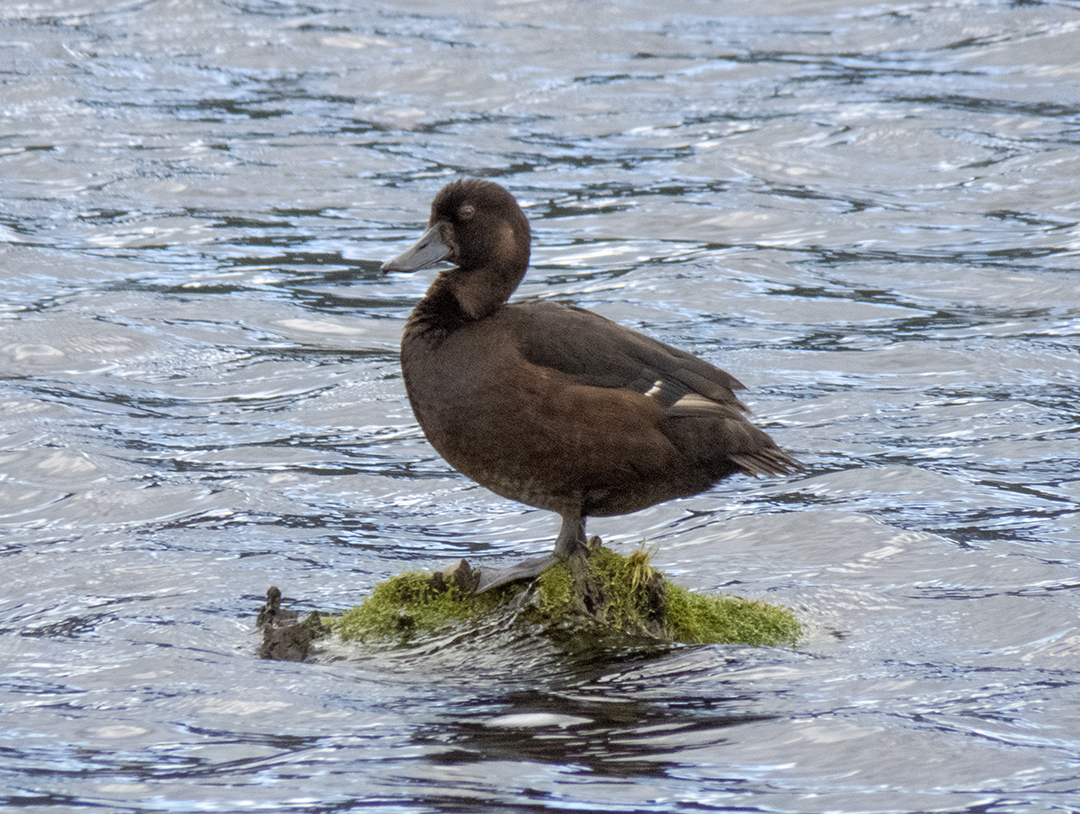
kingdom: Animalia
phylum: Chordata
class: Aves
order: Anseriformes
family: Anatidae
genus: Aythya
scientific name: Aythya novaeseelandiae
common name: New zealand scaup
